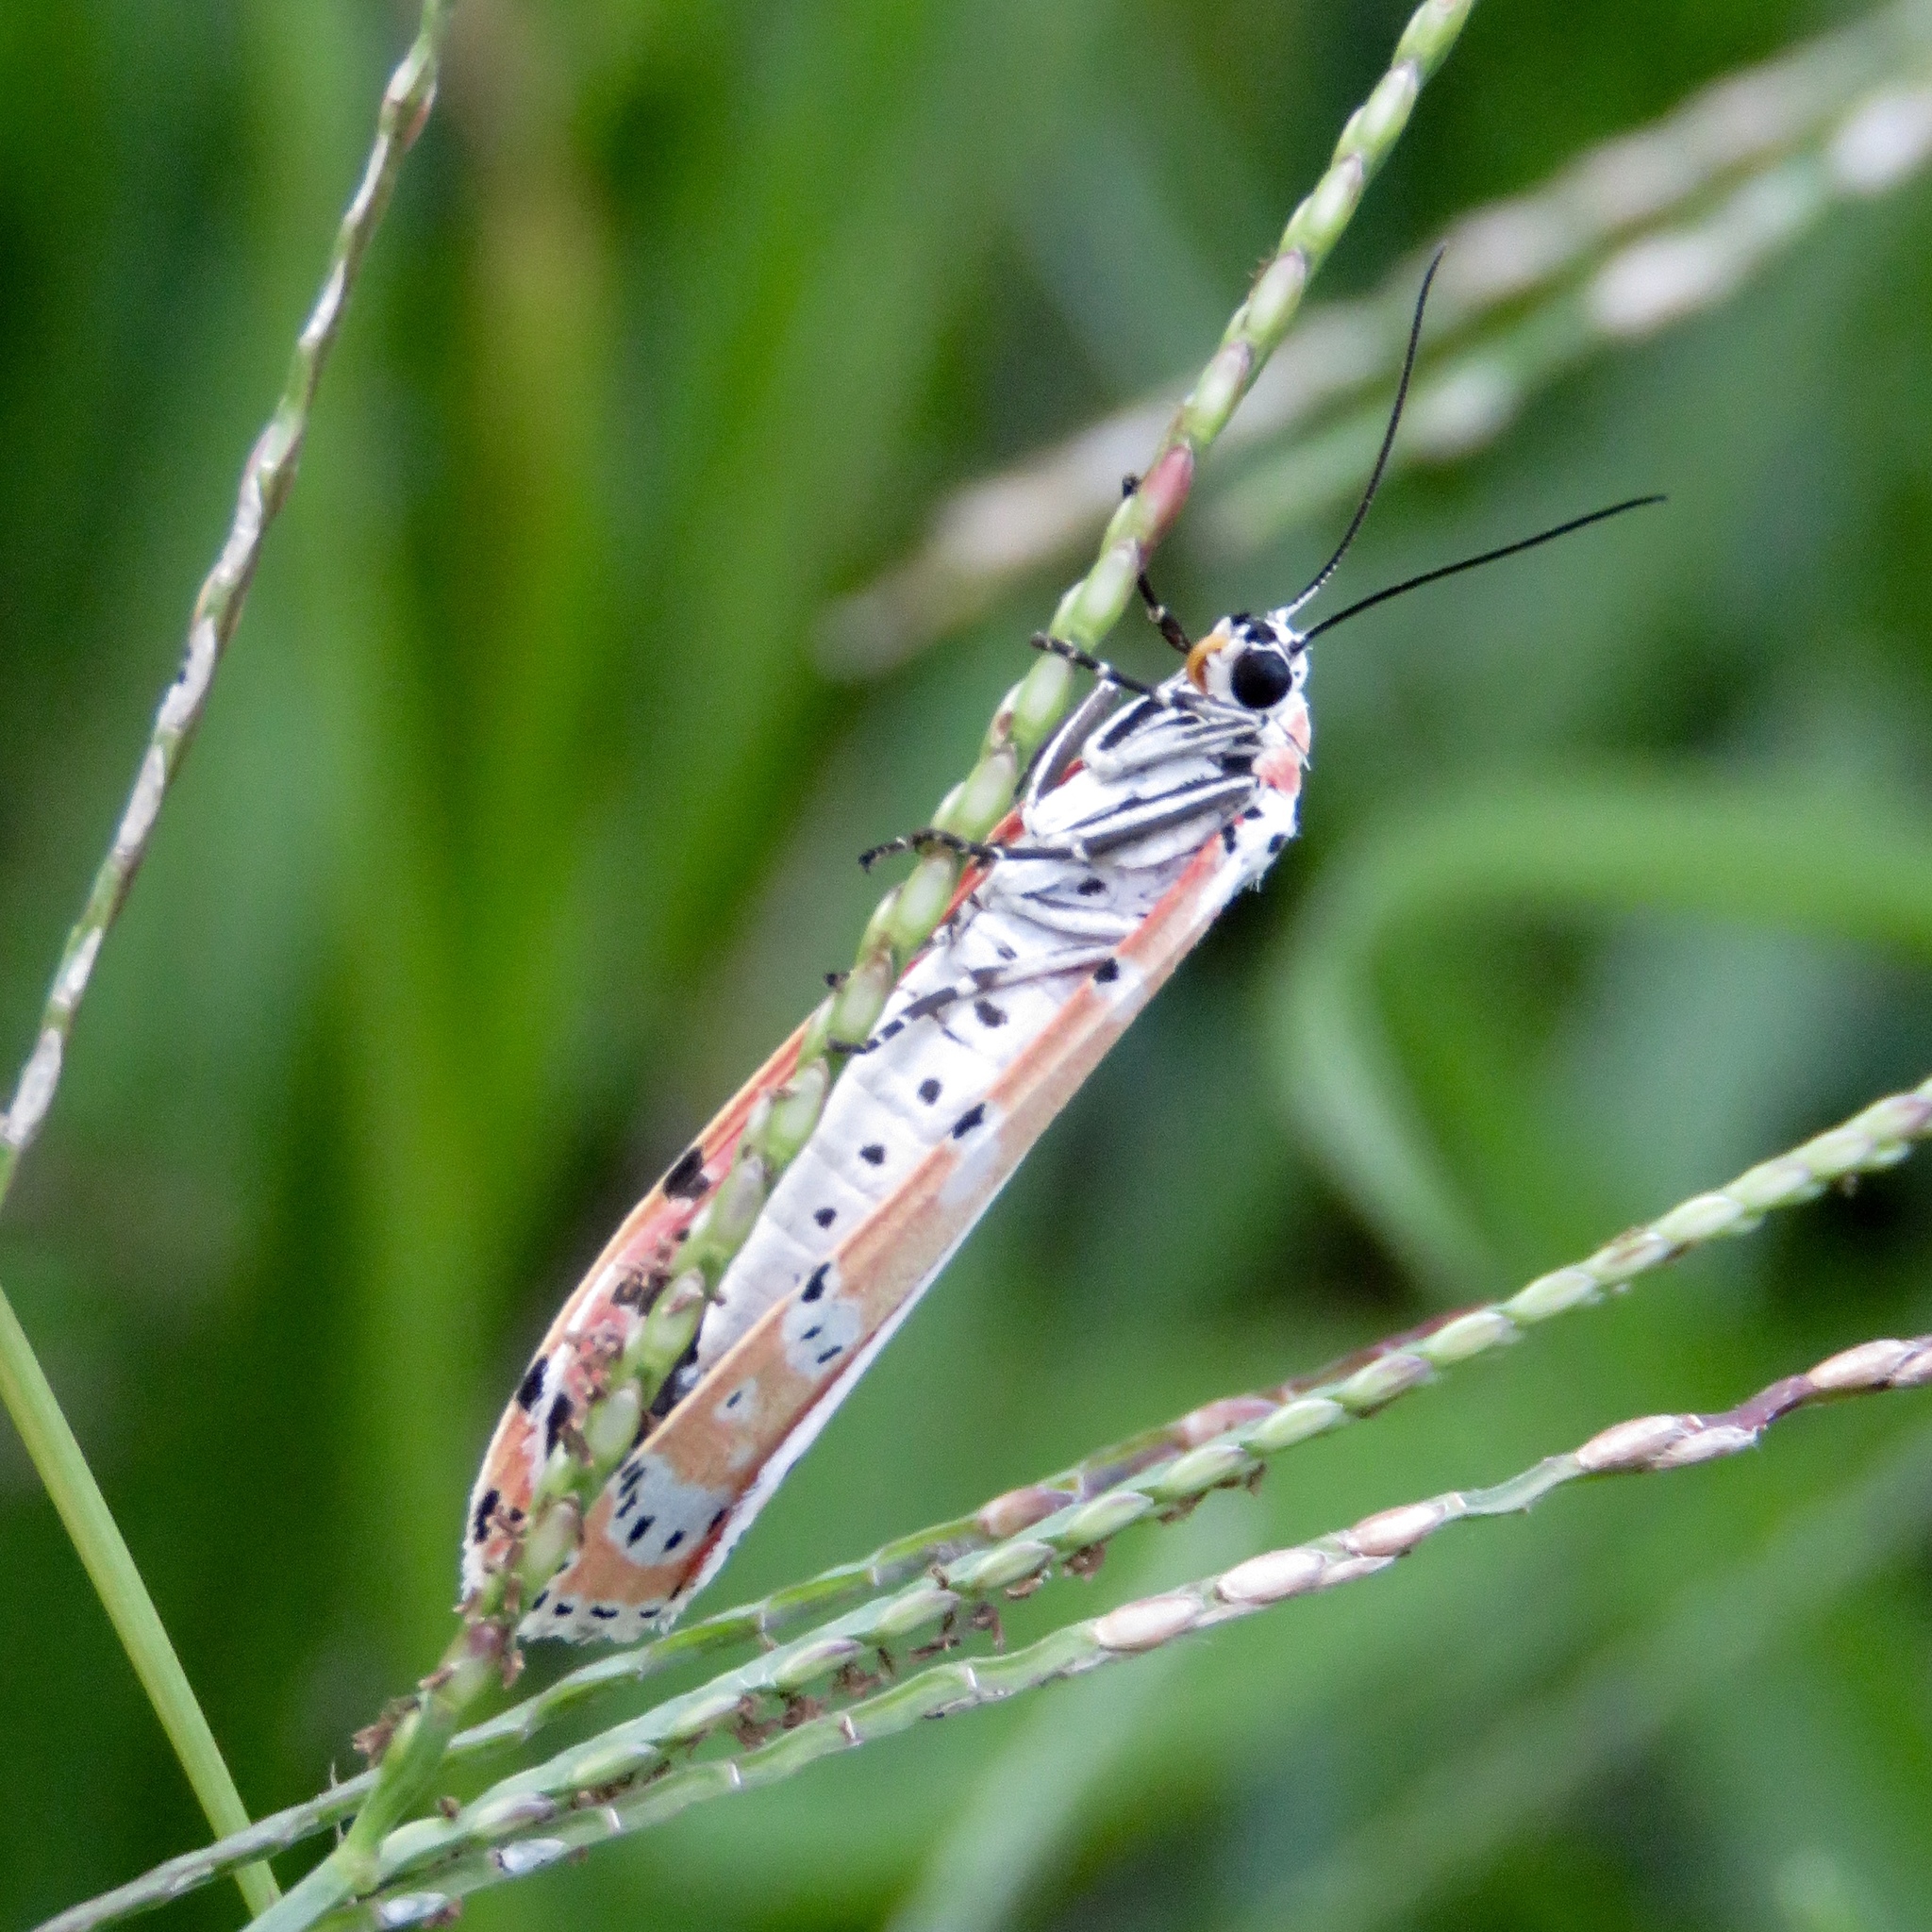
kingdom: Animalia
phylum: Arthropoda
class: Insecta
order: Lepidoptera
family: Erebidae
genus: Utetheisa
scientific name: Utetheisa ornatrix
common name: Beautiful utetheisa
